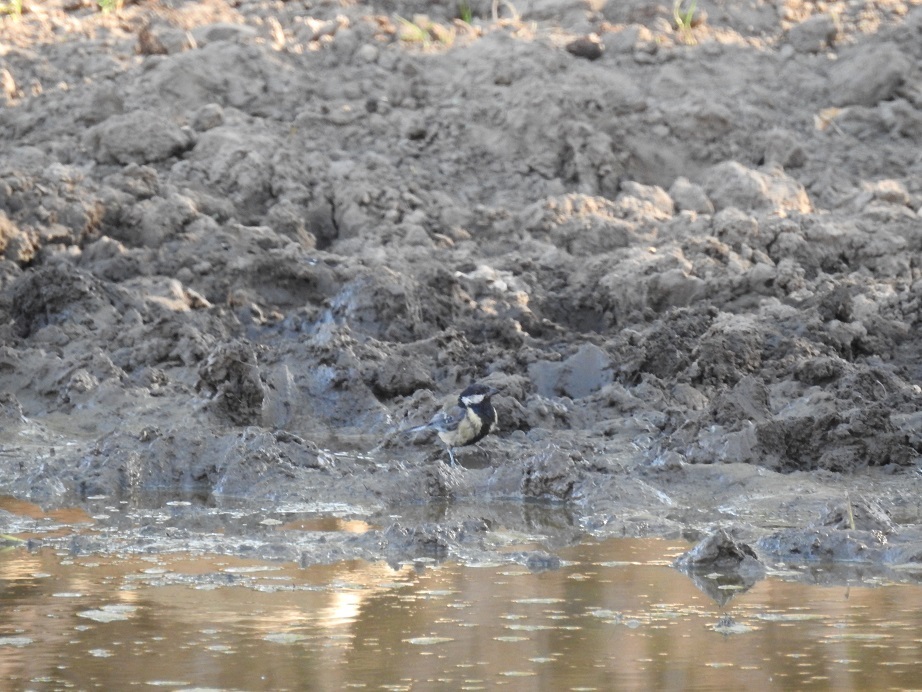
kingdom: Animalia
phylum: Chordata
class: Aves
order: Passeriformes
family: Paridae
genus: Parus
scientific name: Parus major
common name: Great tit
